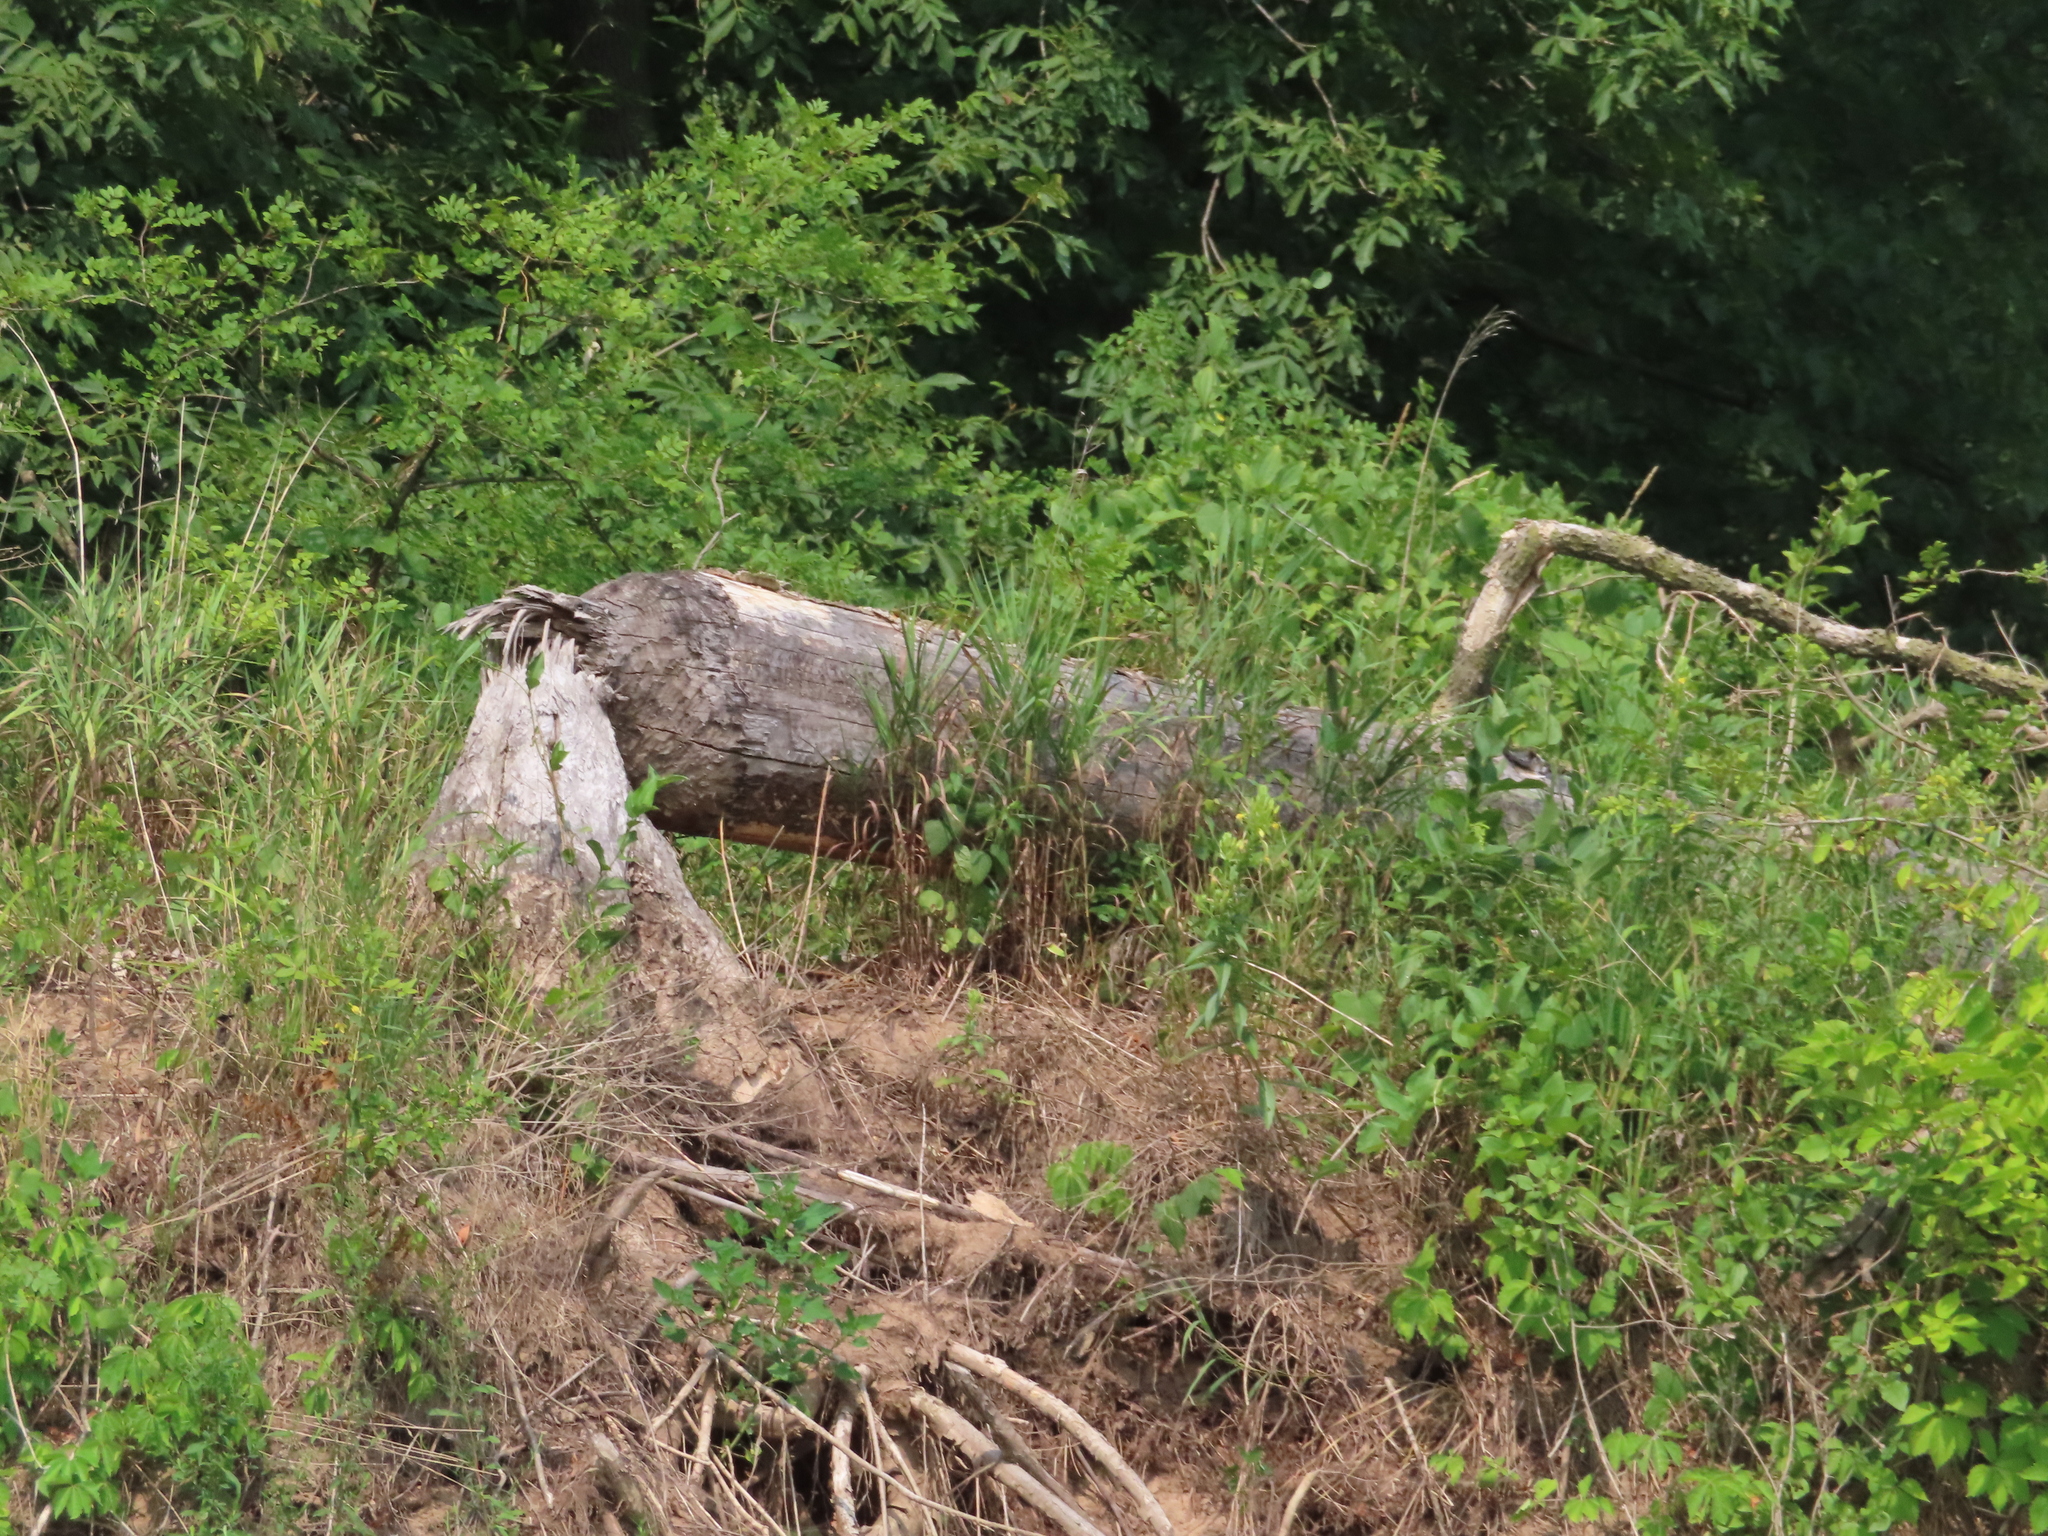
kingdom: Animalia
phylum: Chordata
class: Mammalia
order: Rodentia
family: Castoridae
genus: Castor
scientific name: Castor canadensis
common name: American beaver
